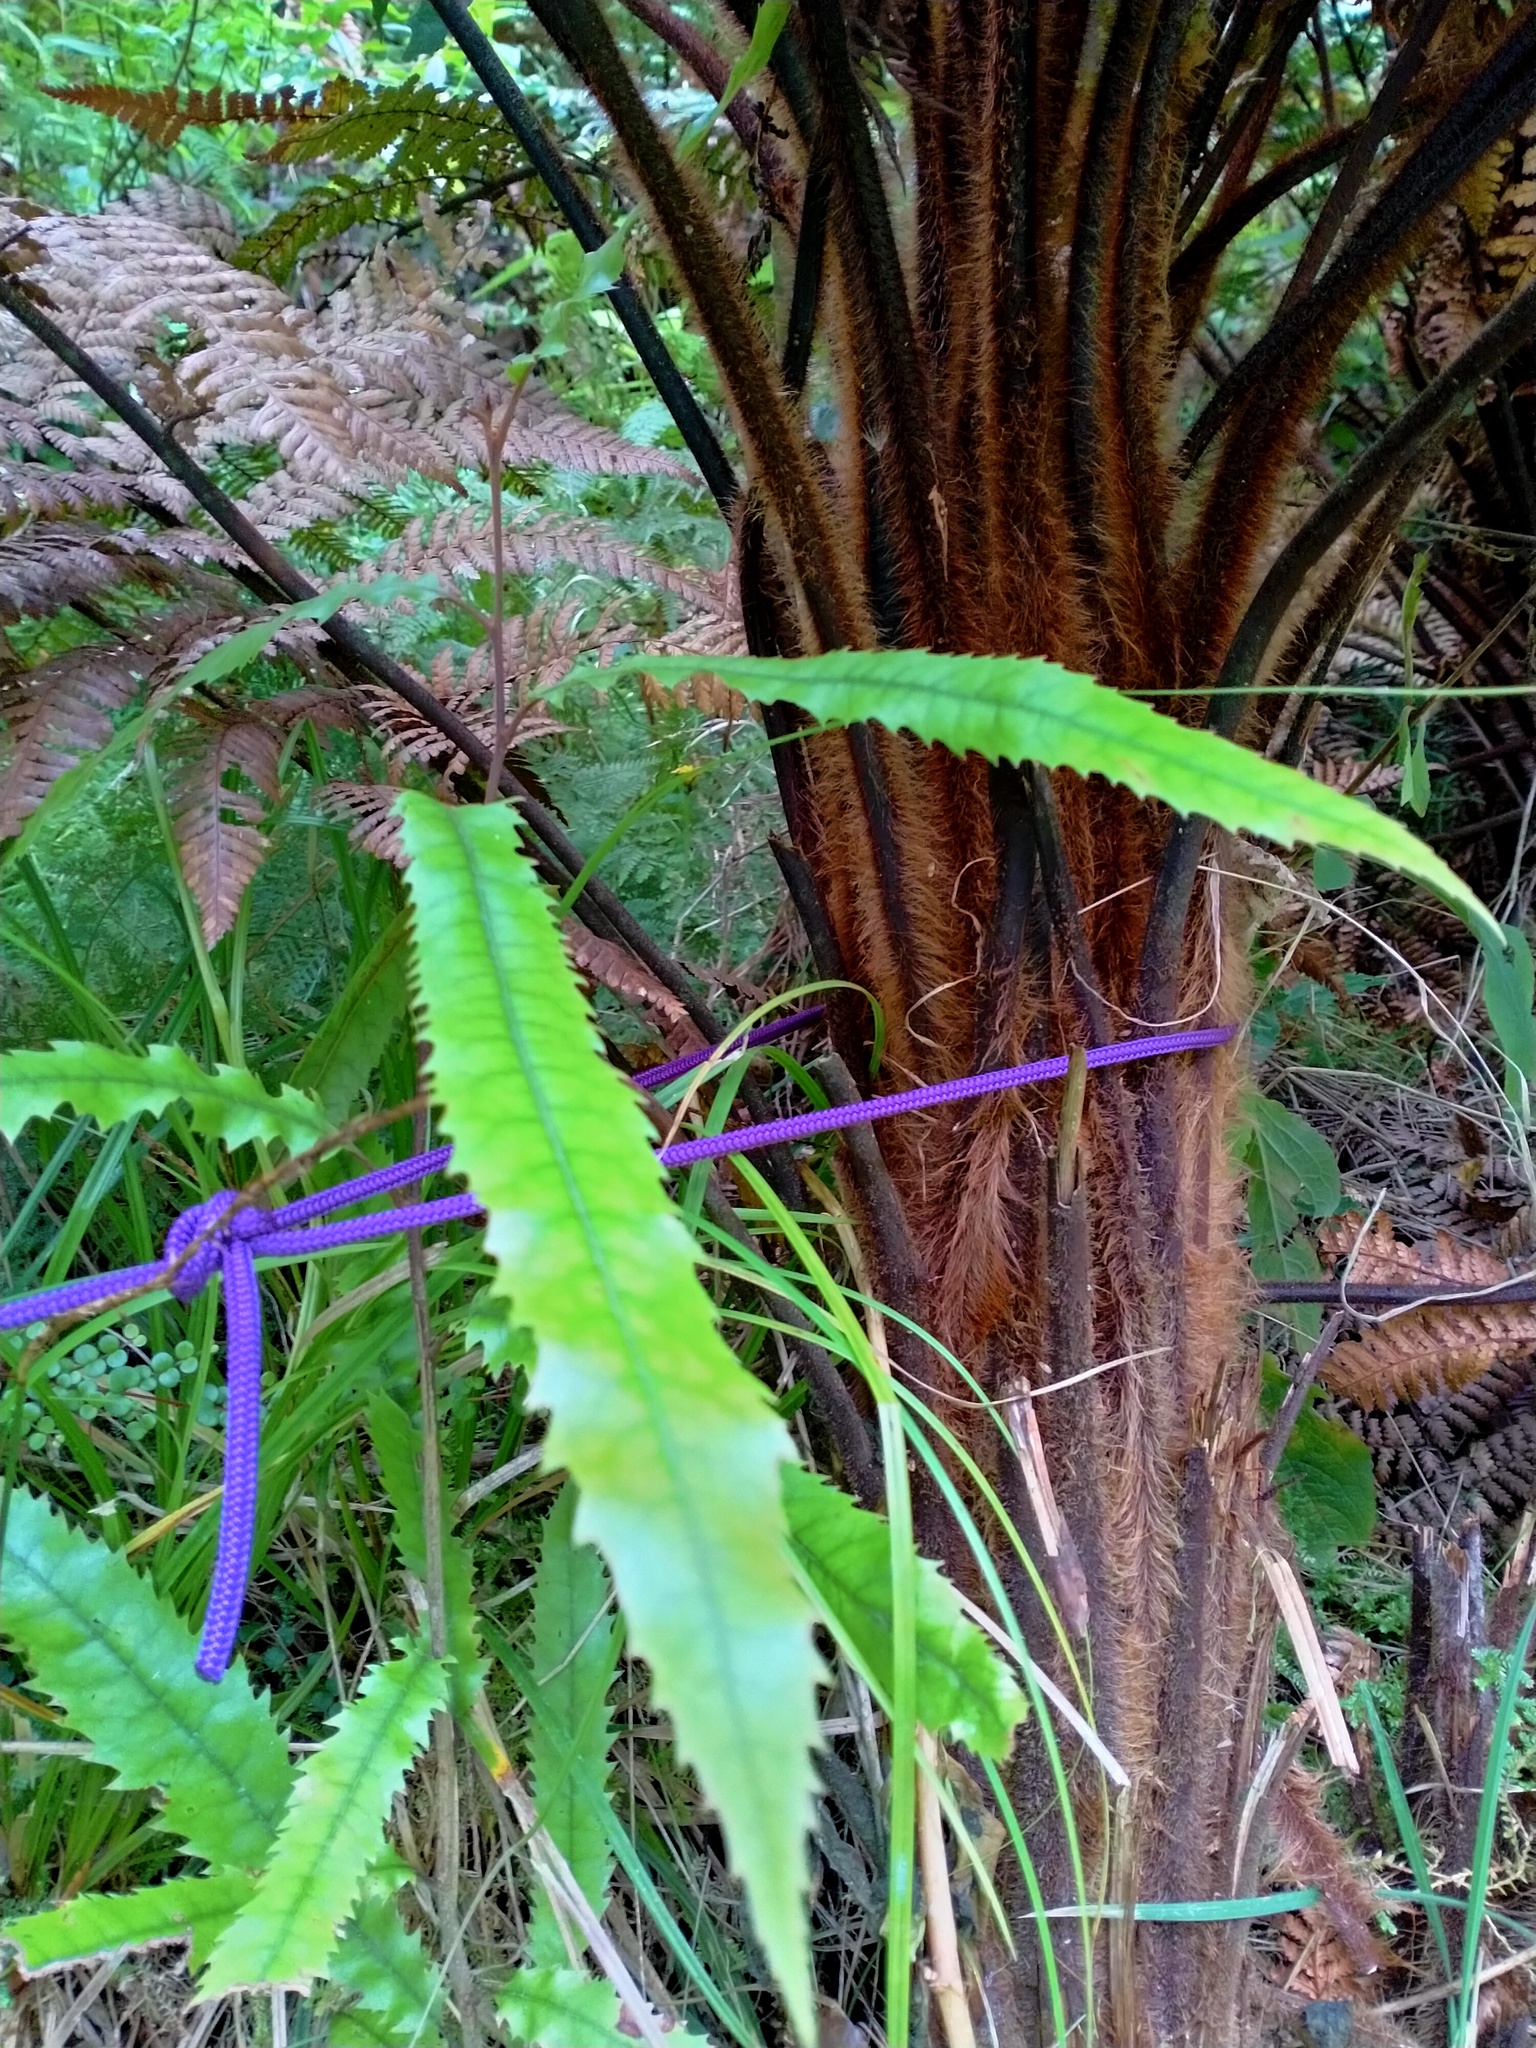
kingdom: Plantae
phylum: Tracheophyta
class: Magnoliopsida
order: Proteales
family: Proteaceae
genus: Knightia
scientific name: Knightia excelsa
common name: New zealand-honeysuckle
